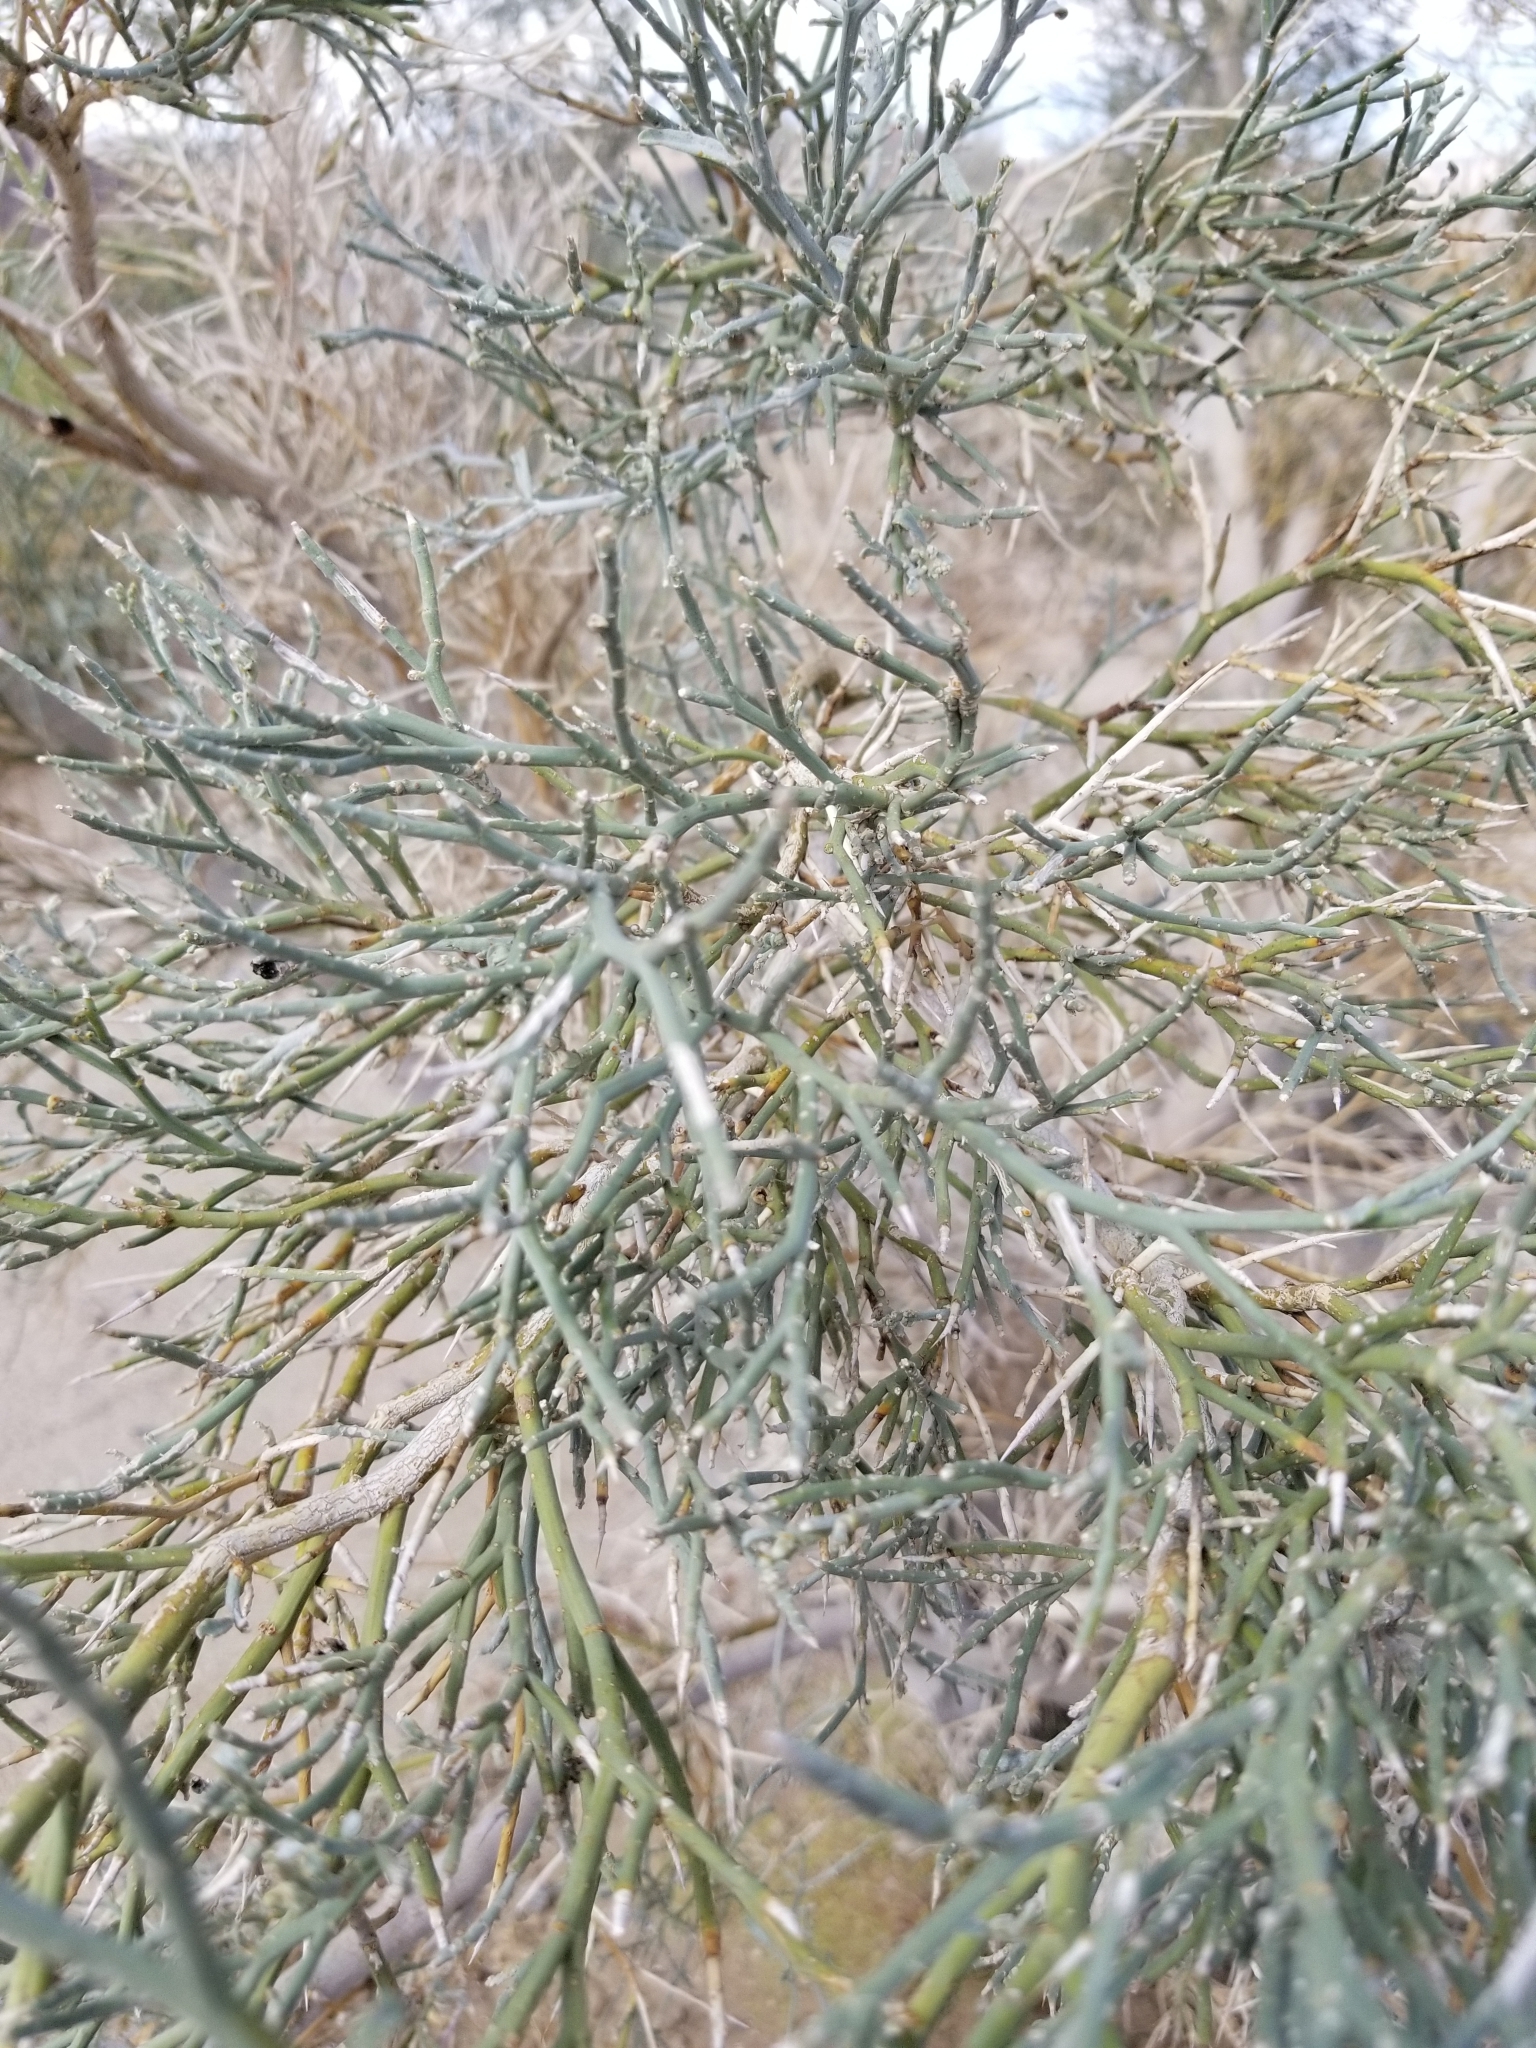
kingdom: Plantae
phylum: Tracheophyta
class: Magnoliopsida
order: Fabales
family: Fabaceae
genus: Psorothamnus
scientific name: Psorothamnus spinosus
